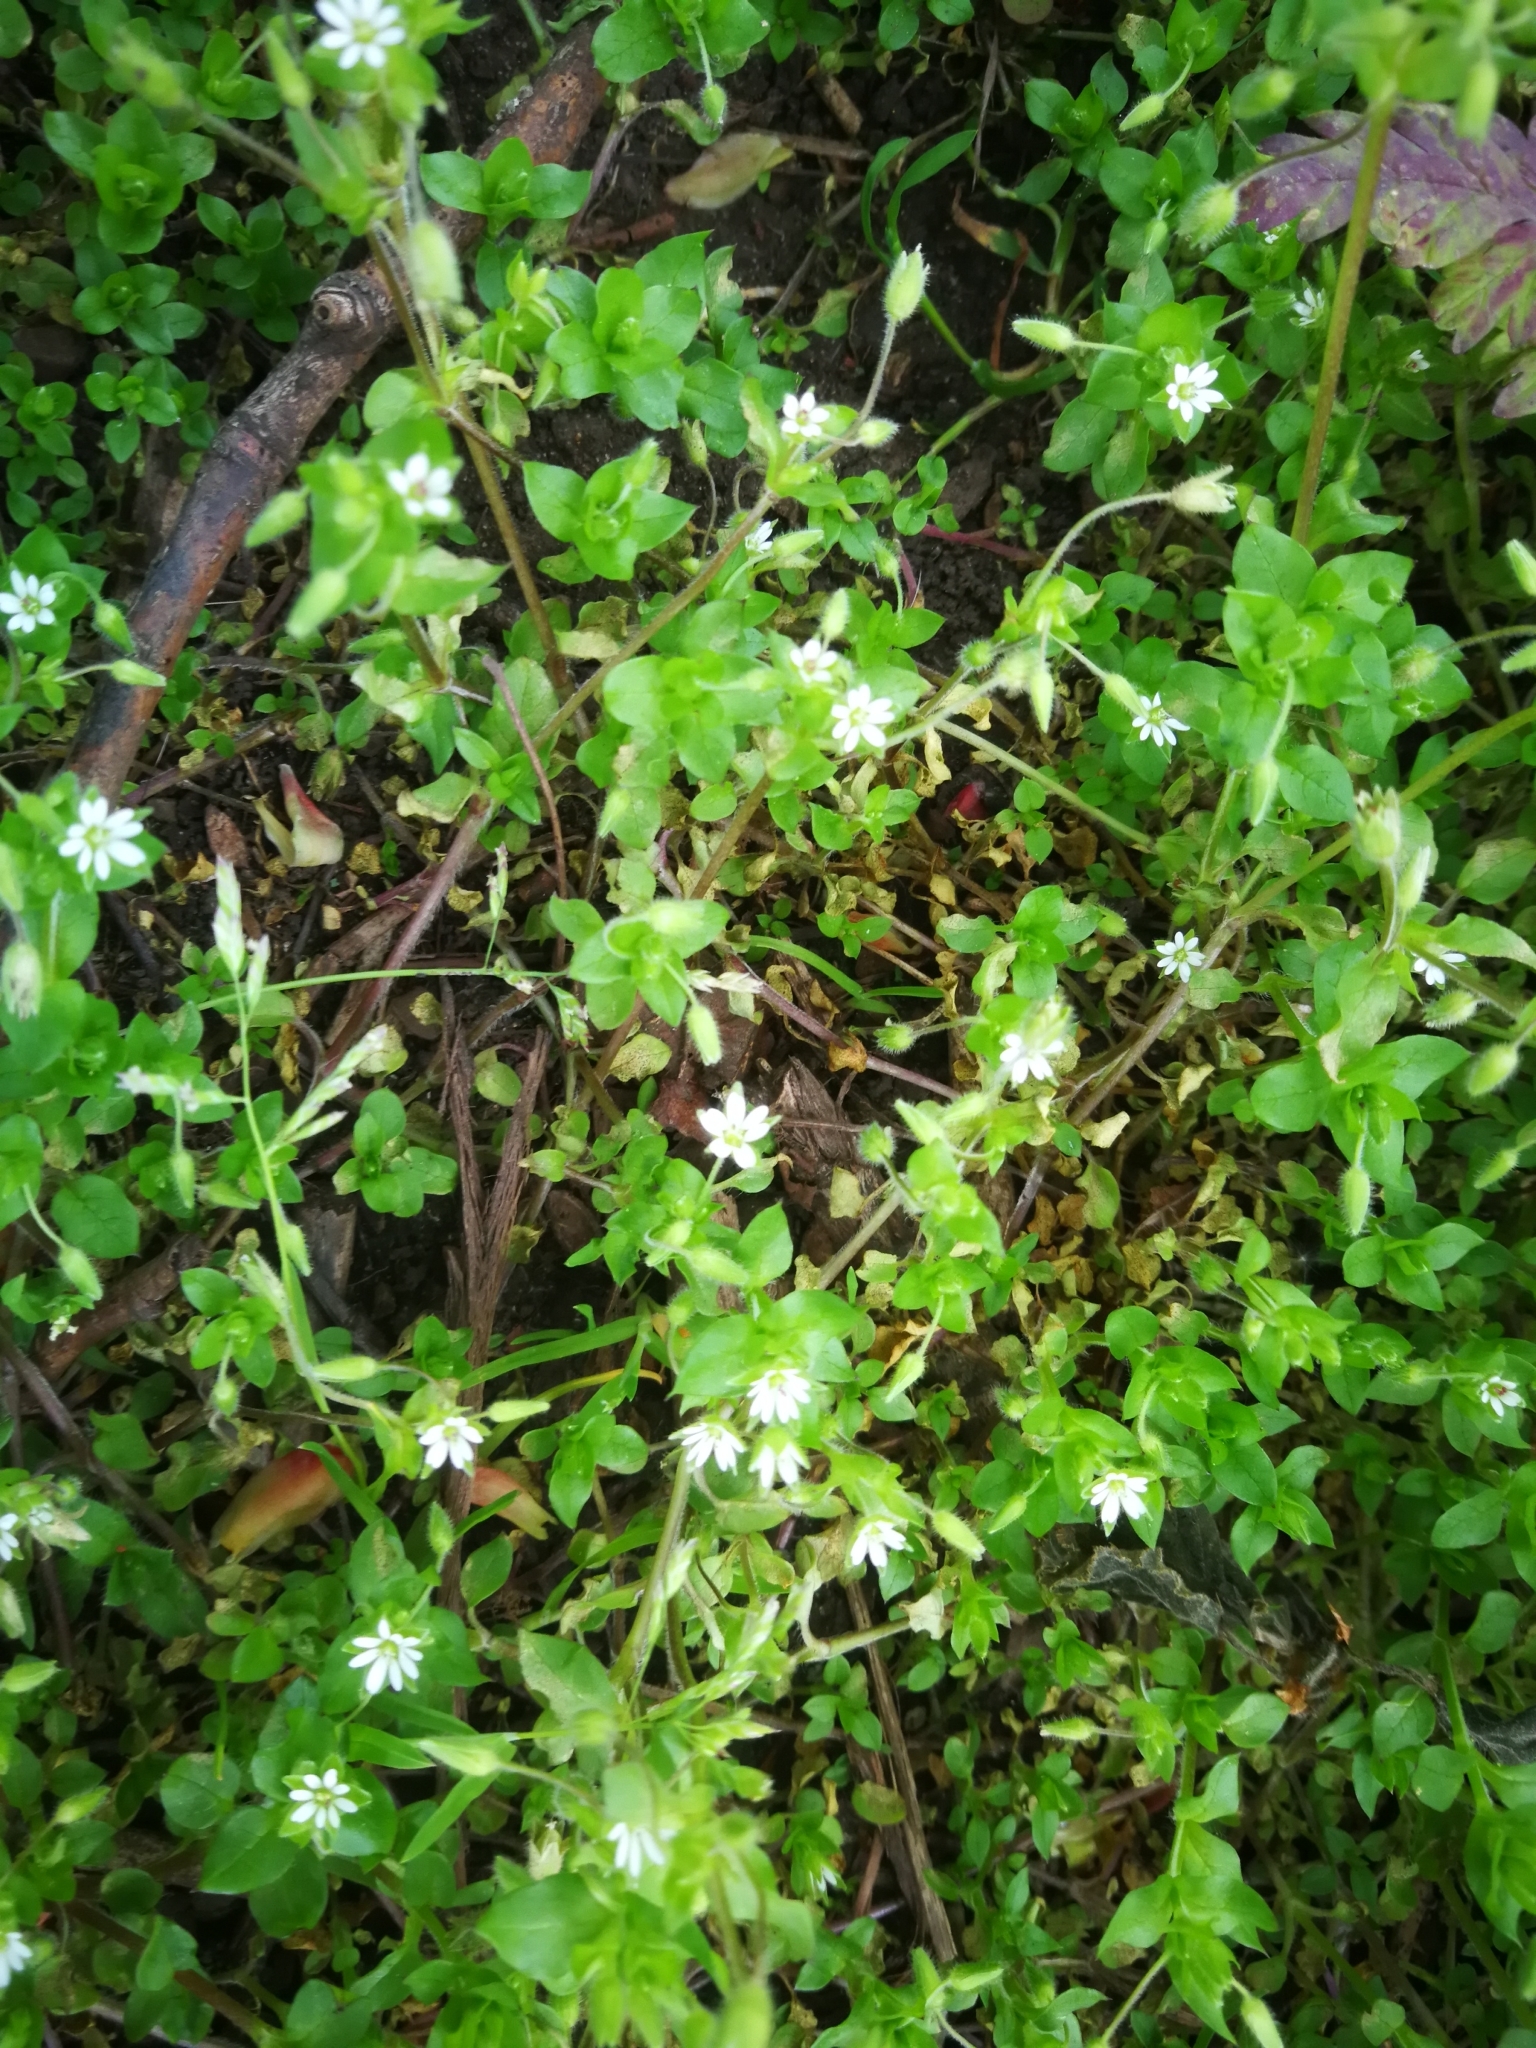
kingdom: Plantae
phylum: Tracheophyta
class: Magnoliopsida
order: Caryophyllales
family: Caryophyllaceae
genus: Stellaria
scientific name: Stellaria media
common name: Common chickweed
